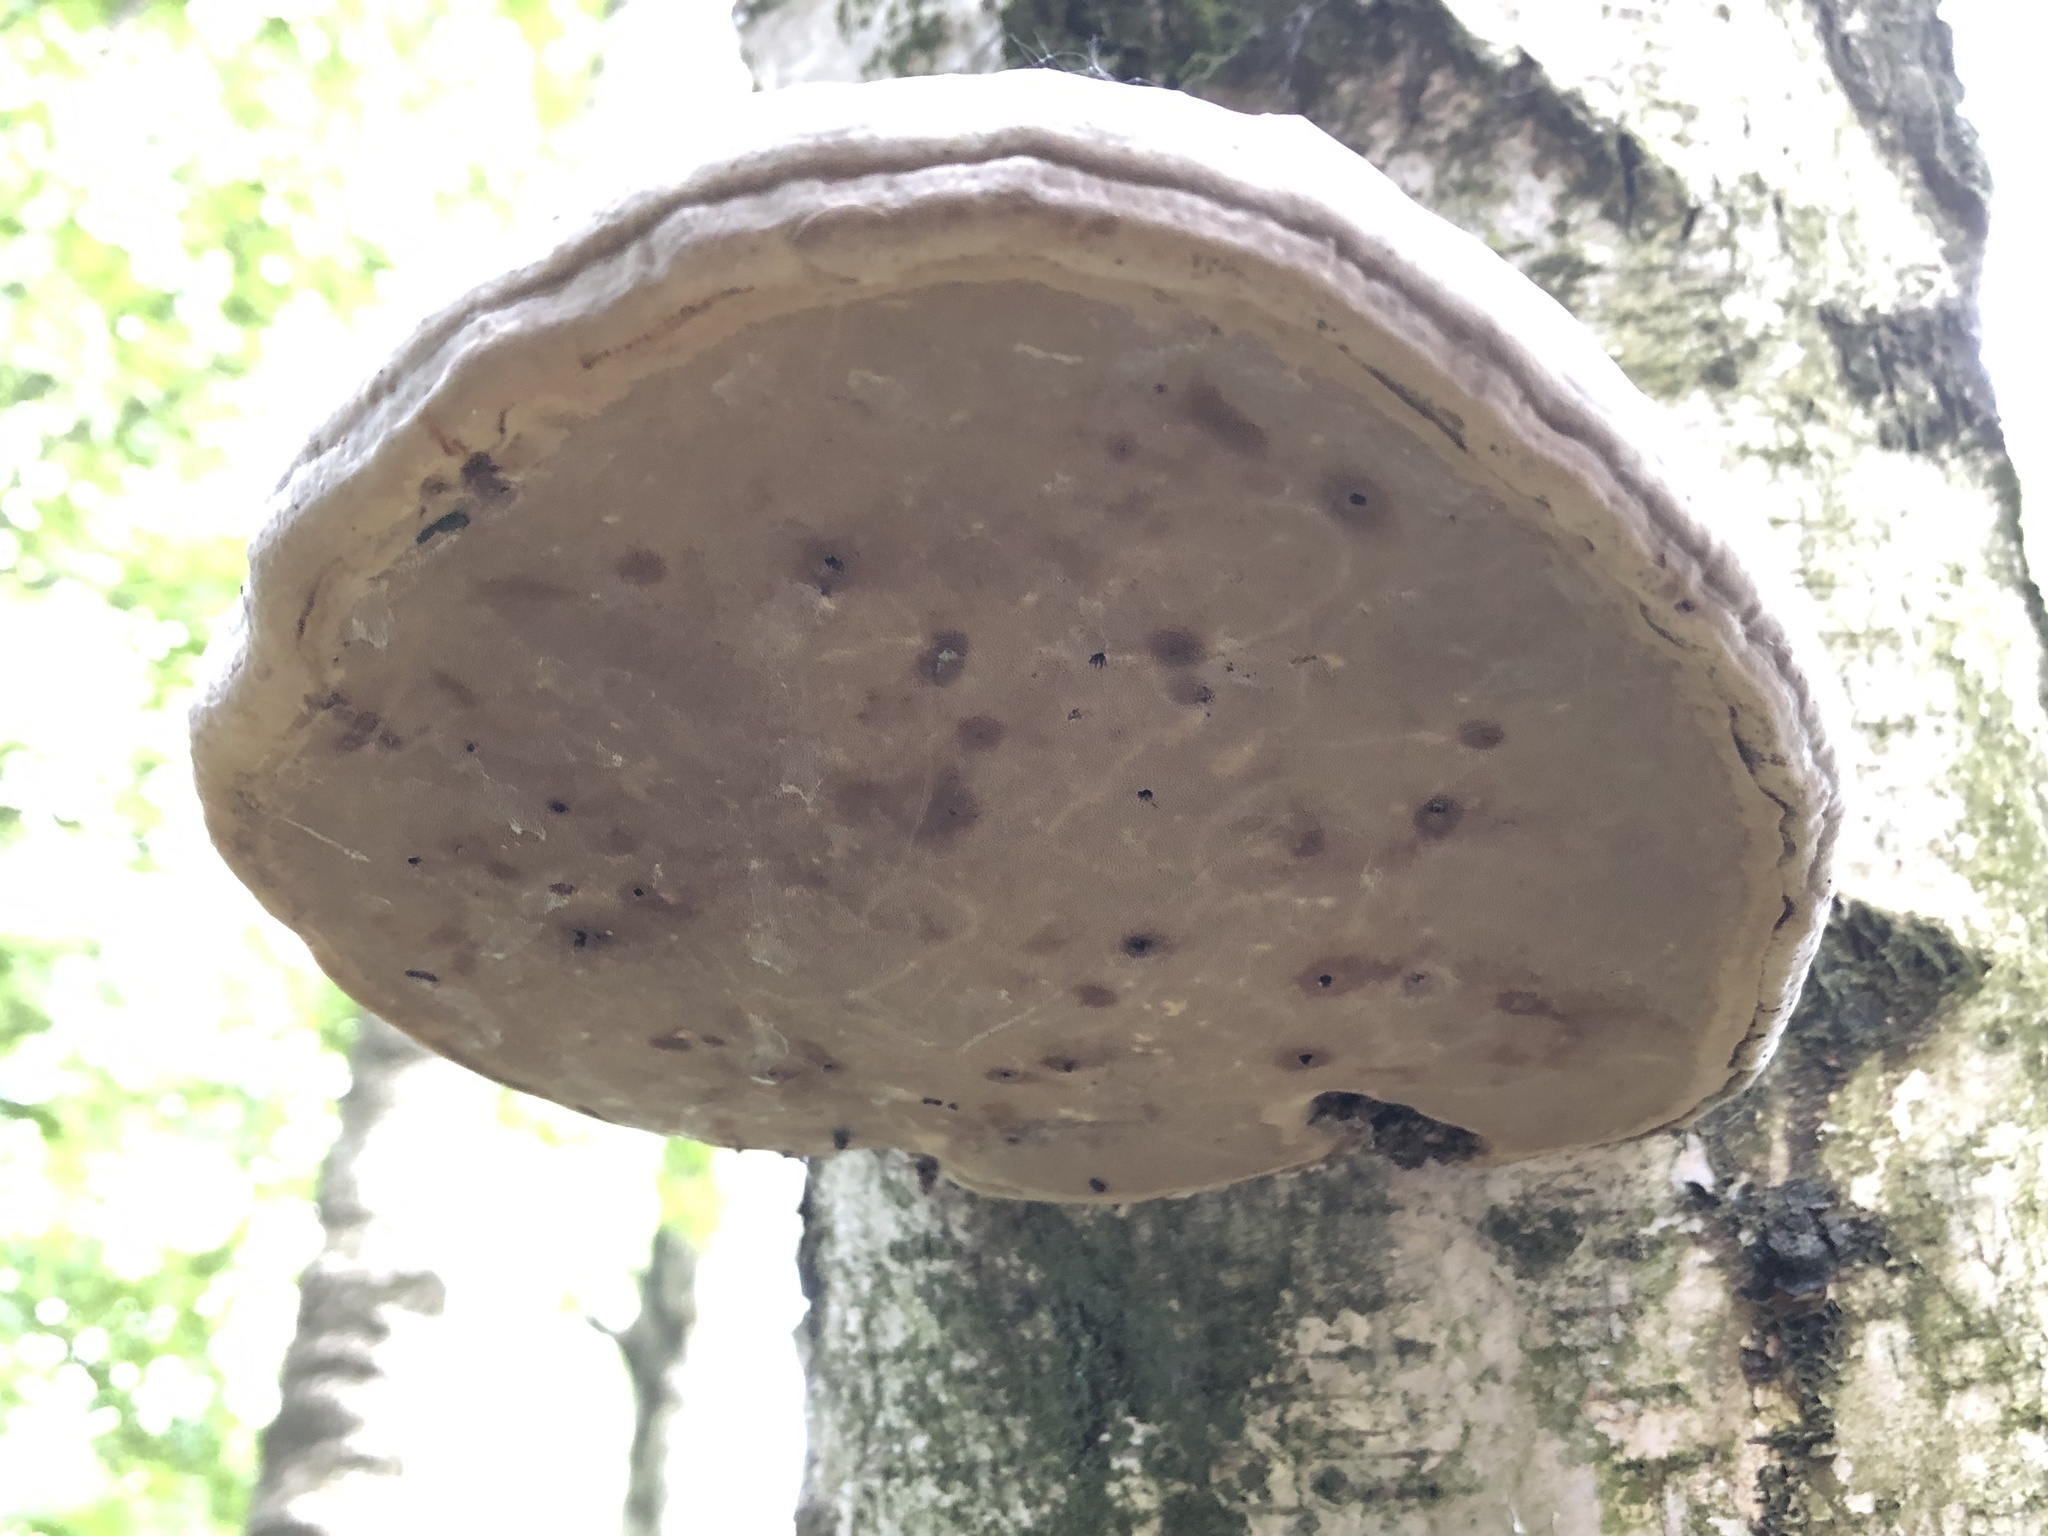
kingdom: Fungi
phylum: Basidiomycota
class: Agaricomycetes
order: Polyporales
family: Polyporaceae
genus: Fomes
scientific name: Fomes fomentarius
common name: Hoof fungus
